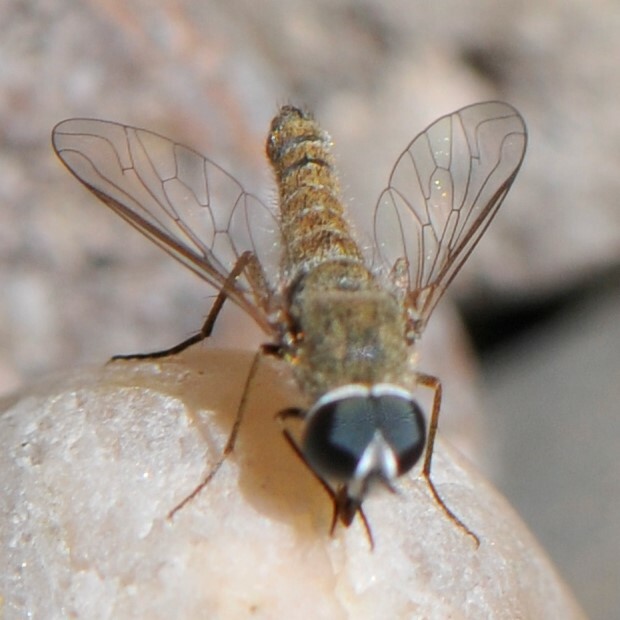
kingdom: Animalia
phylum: Arthropoda
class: Insecta
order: Diptera
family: Bombyliidae
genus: Aphoebantus
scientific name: Aphoebantus
